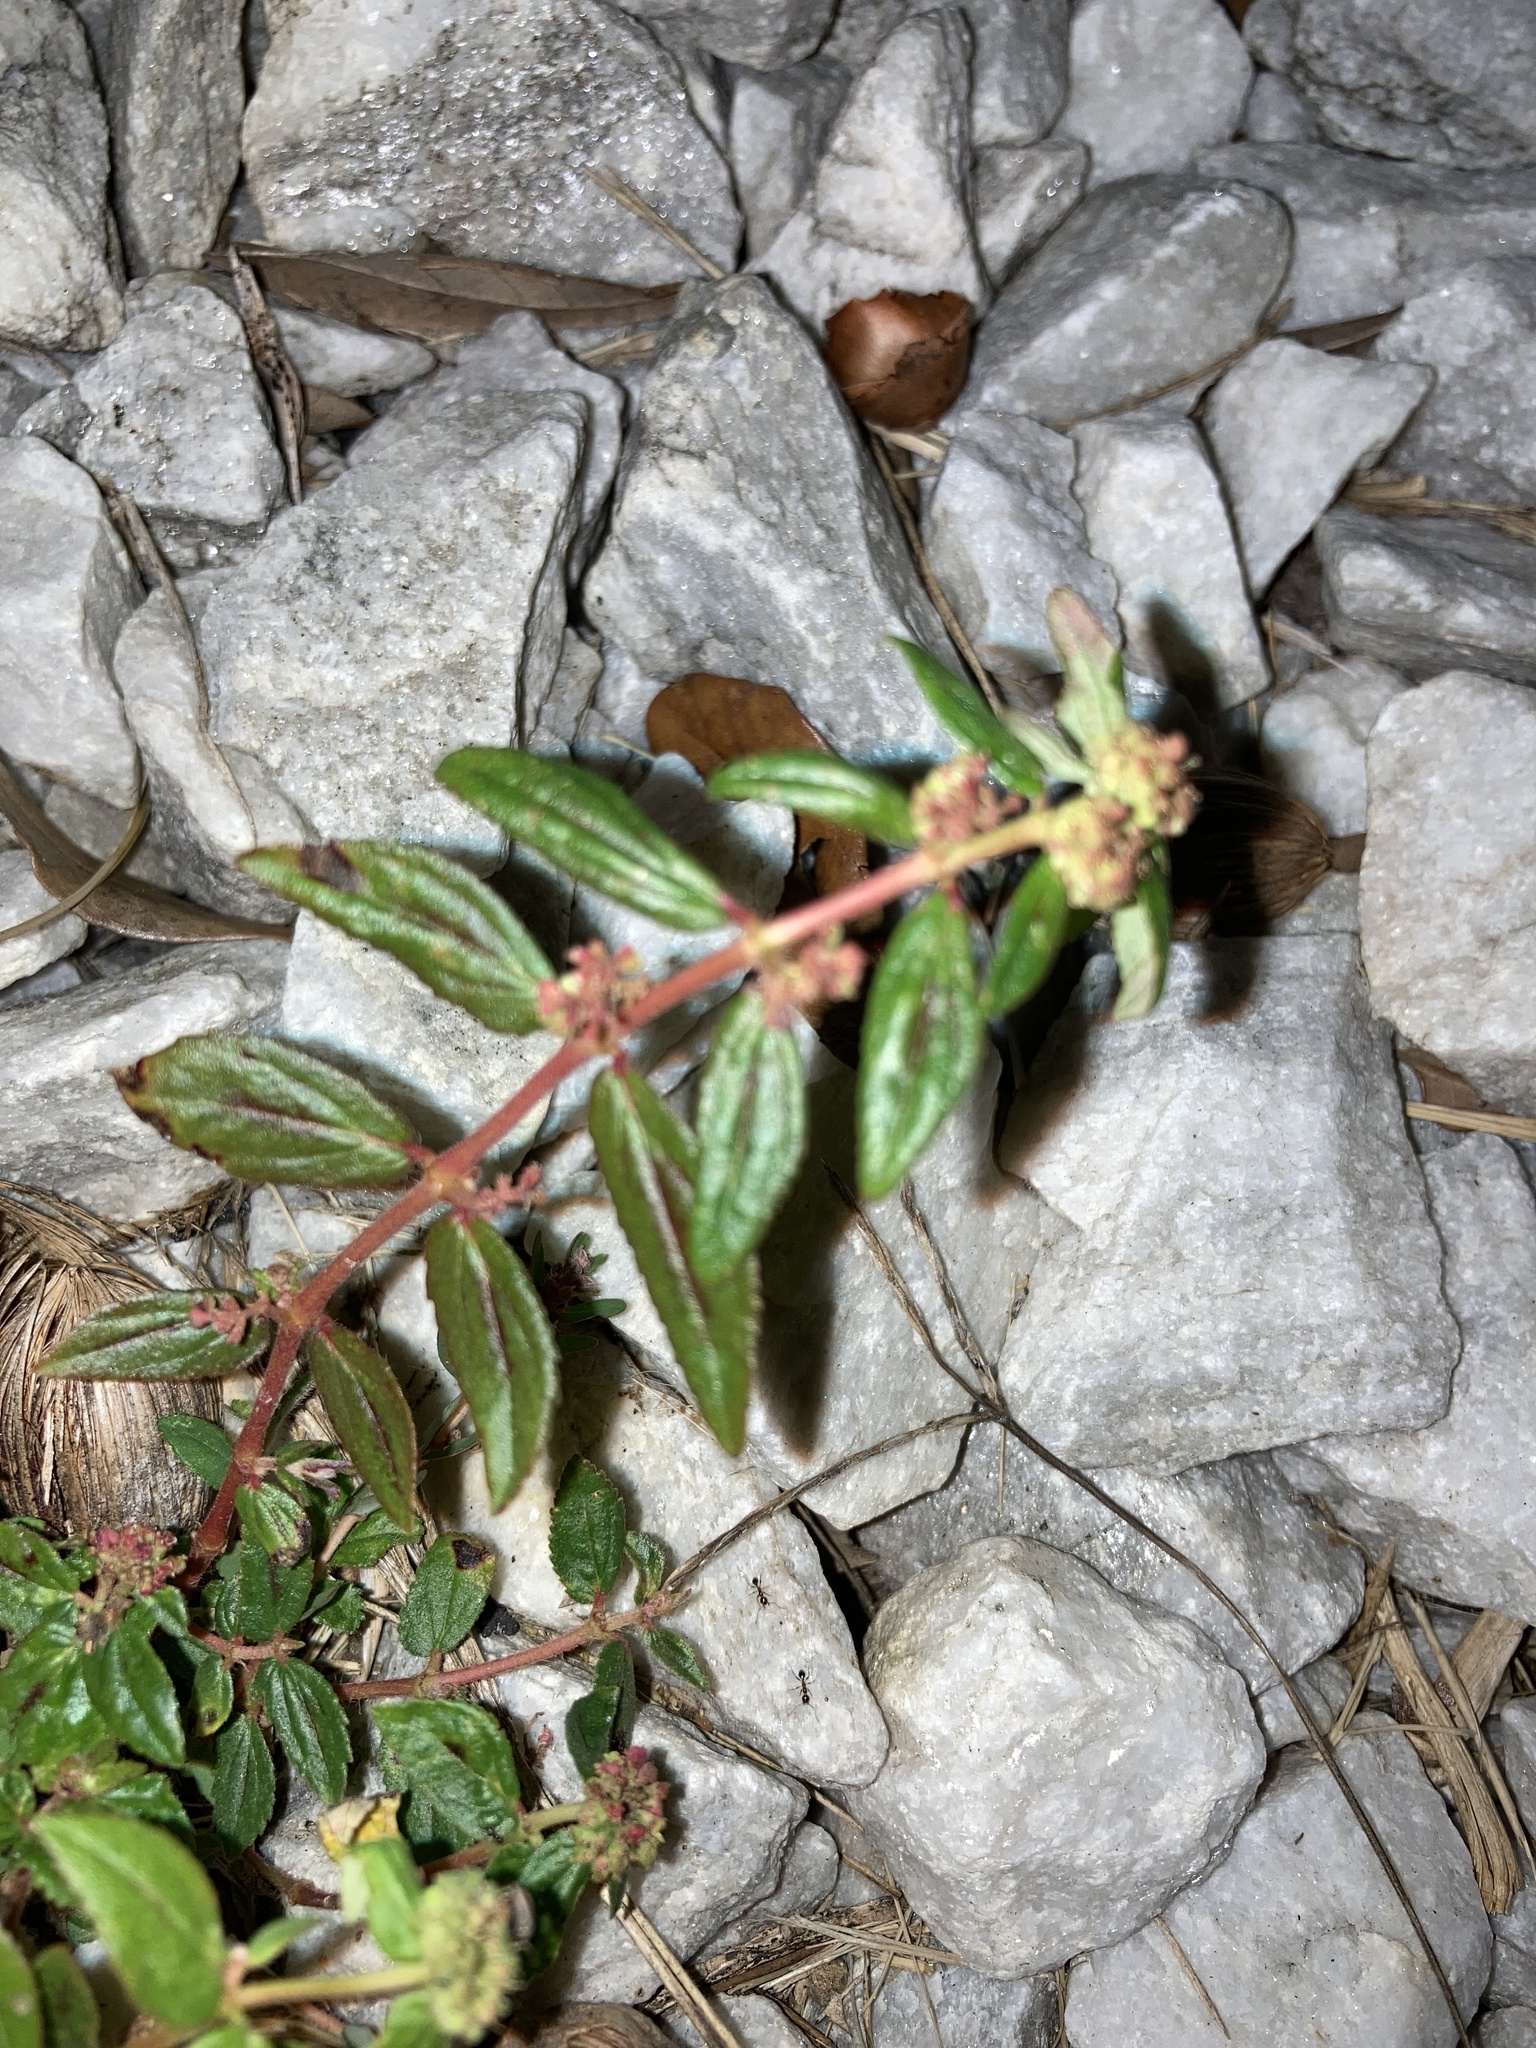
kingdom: Plantae
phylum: Tracheophyta
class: Magnoliopsida
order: Malpighiales
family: Euphorbiaceae
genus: Euphorbia
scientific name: Euphorbia hirta
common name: Pillpod sandmat
